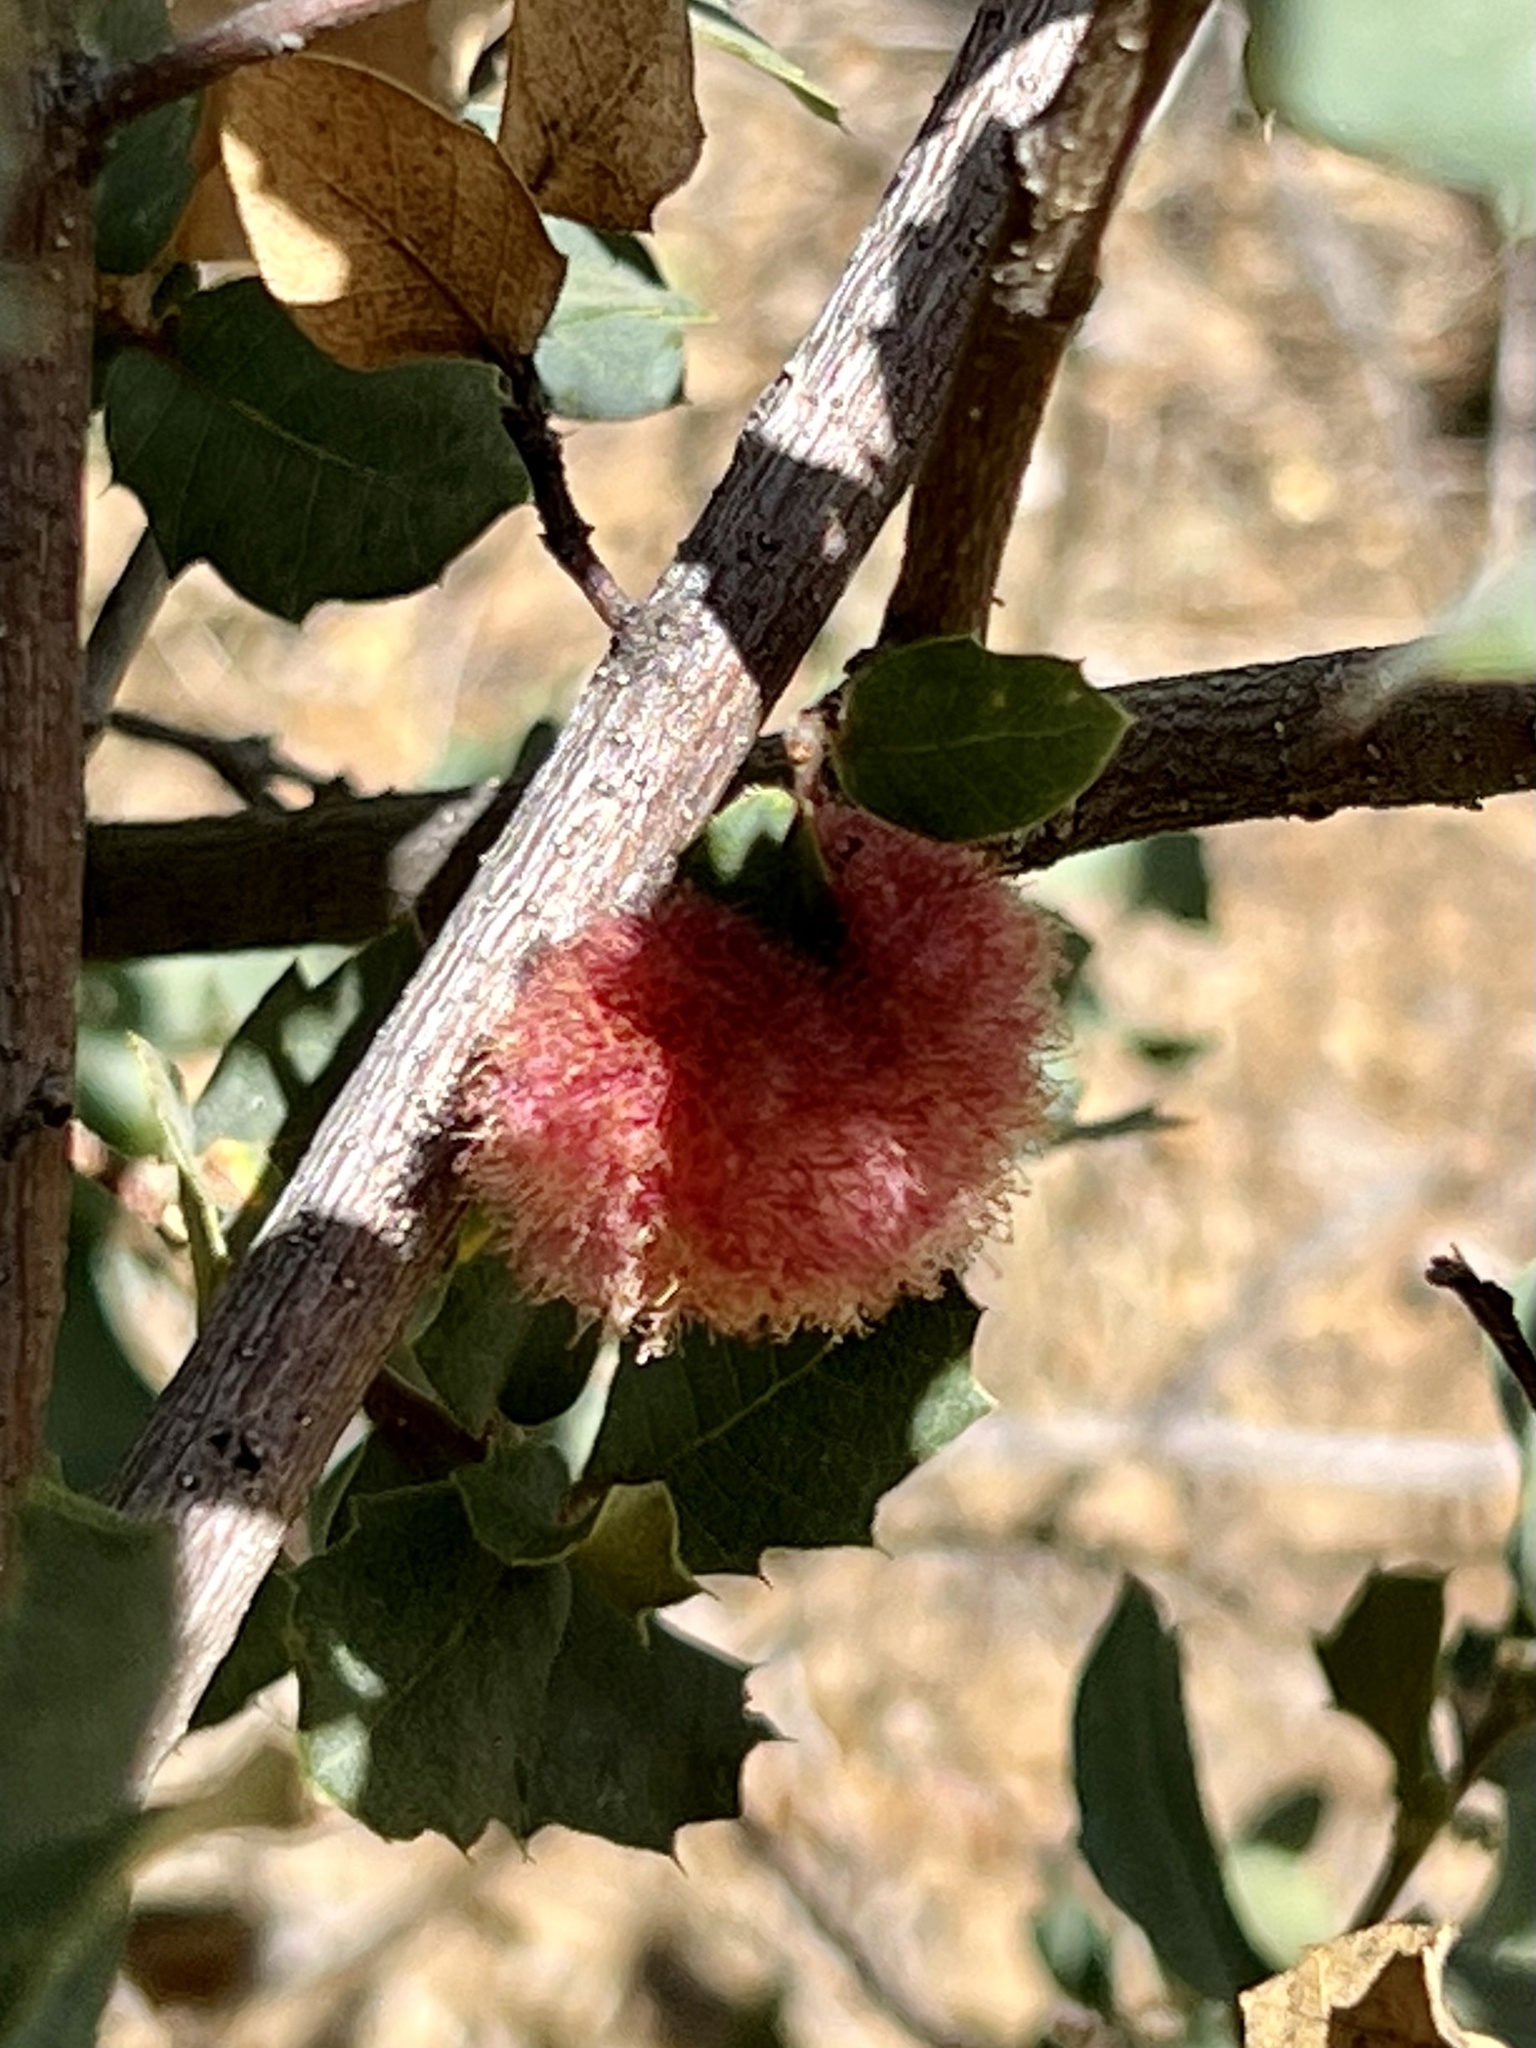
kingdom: Animalia
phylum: Arthropoda
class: Insecta
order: Hymenoptera
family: Cynipidae
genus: Andricus
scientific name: Andricus
